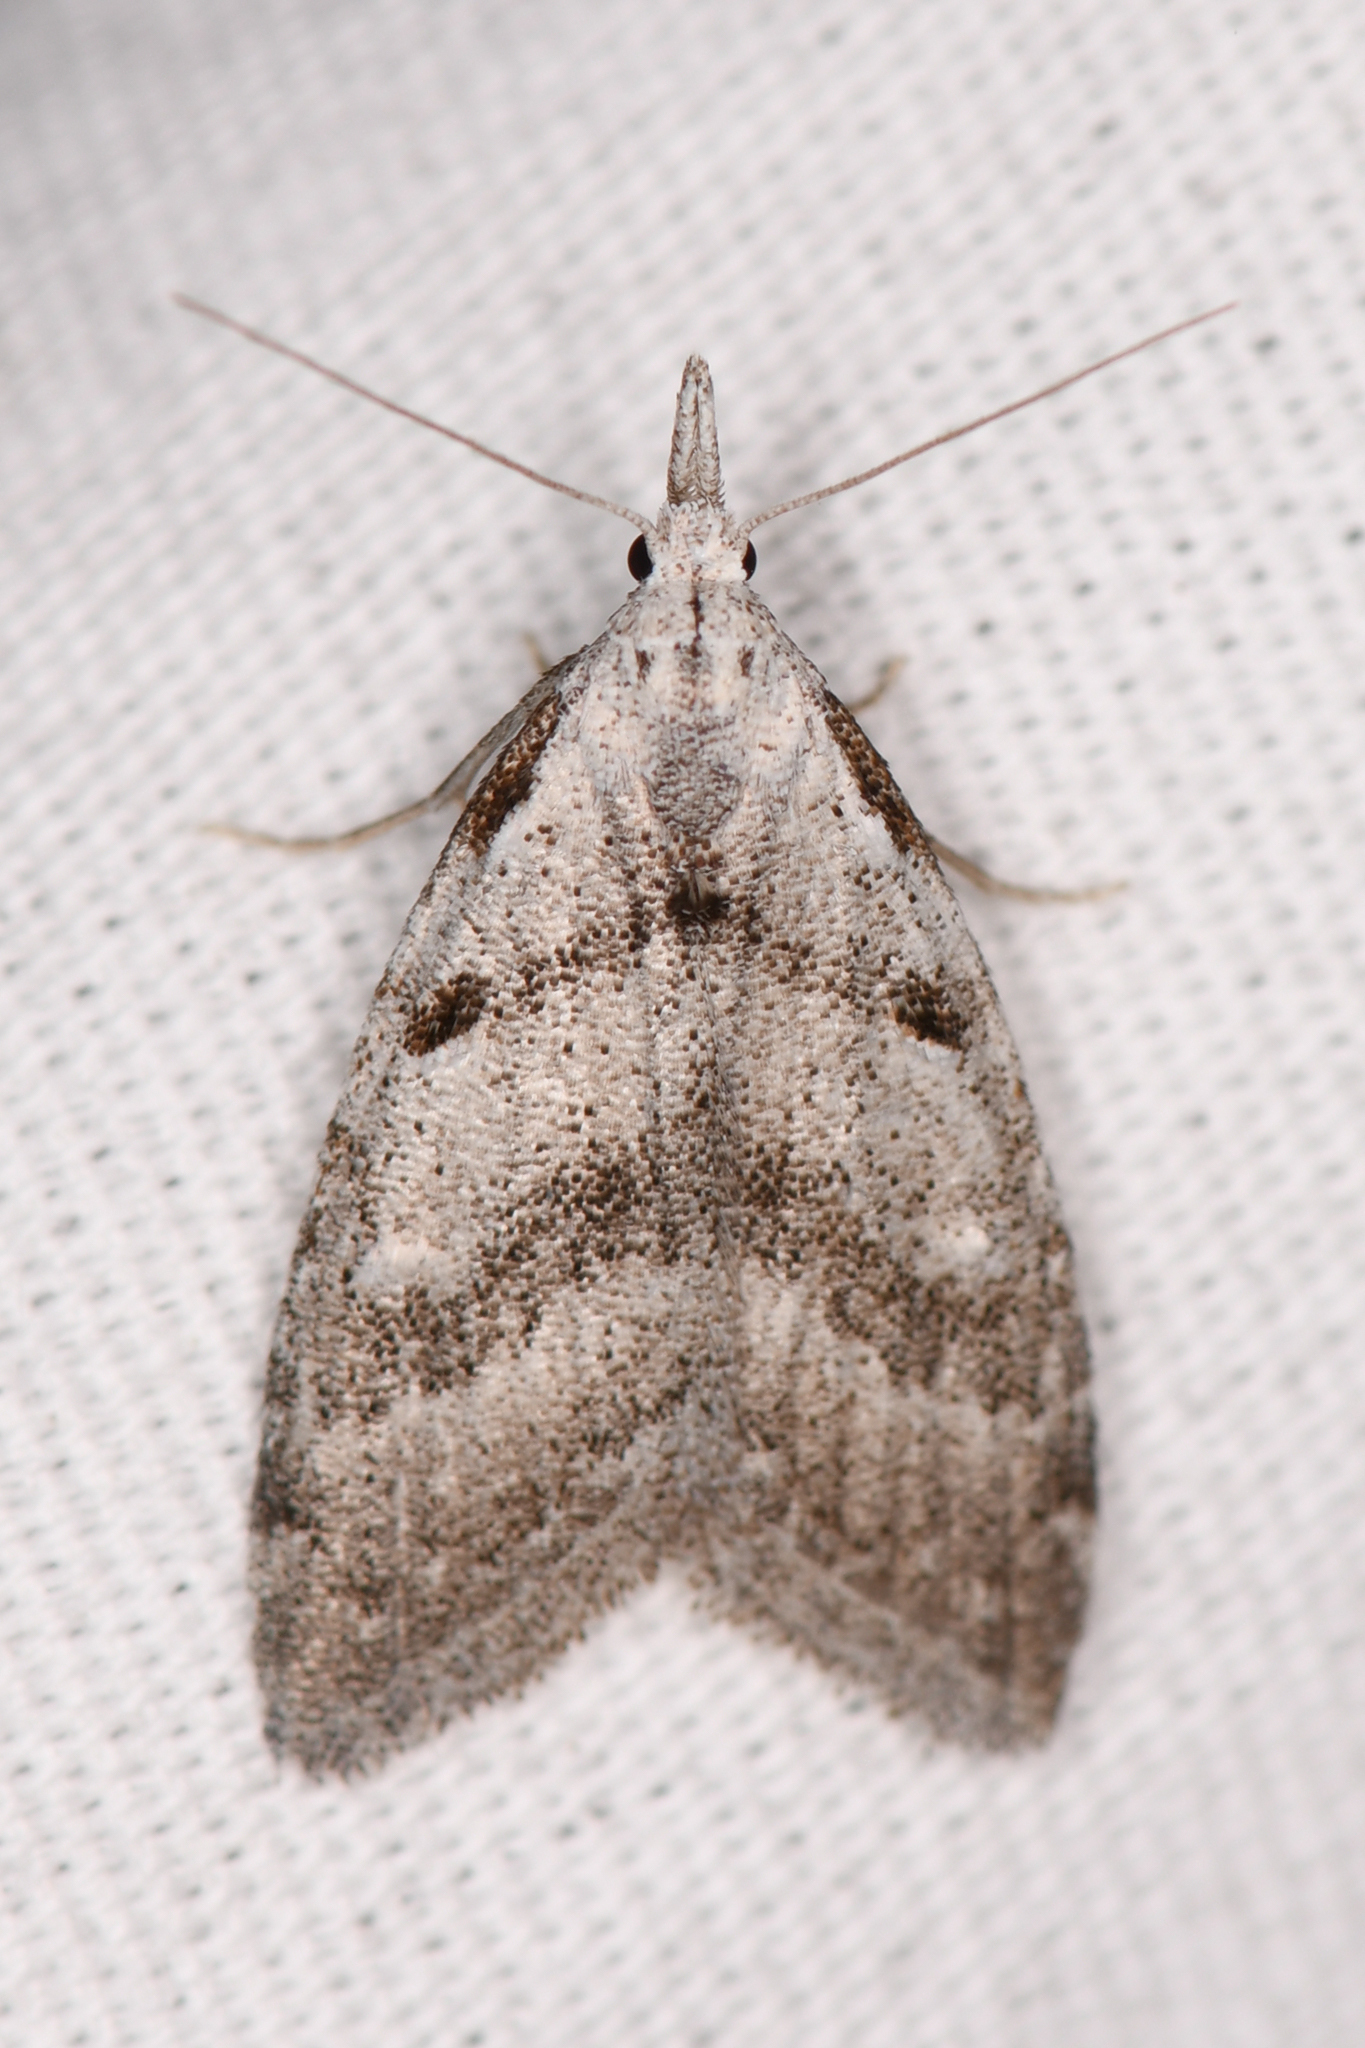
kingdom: Animalia
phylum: Arthropoda
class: Insecta
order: Lepidoptera
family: Nolidae
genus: Nola
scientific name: Nola minna
